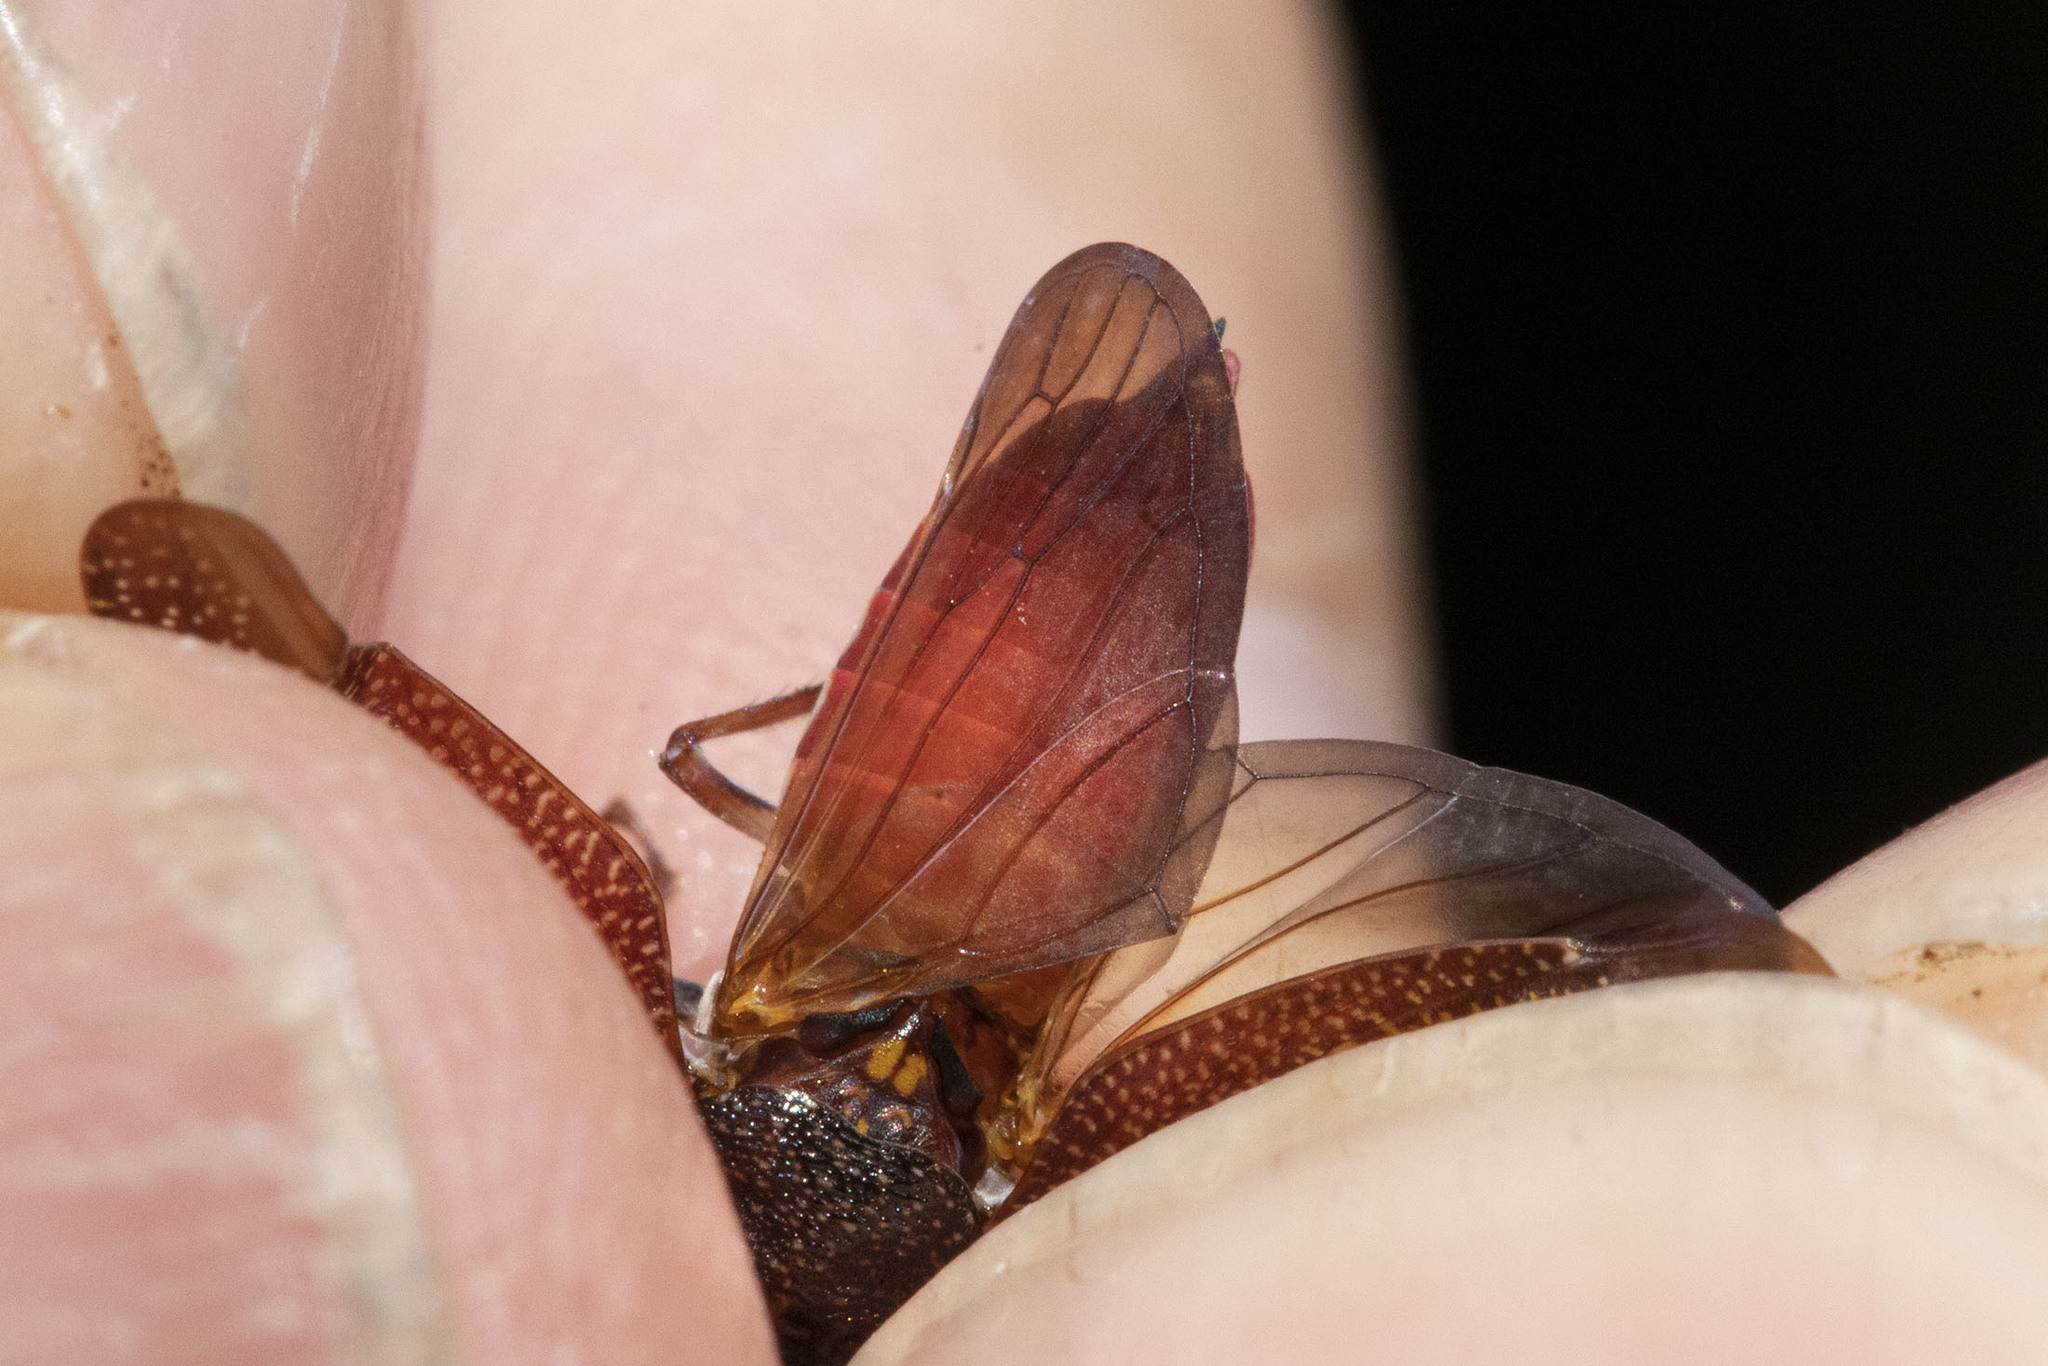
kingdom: Animalia
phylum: Arthropoda
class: Insecta
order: Hemiptera
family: Cicadellidae
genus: Paraulacizes
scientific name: Paraulacizes irrorata
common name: Speckled sharpshooter
